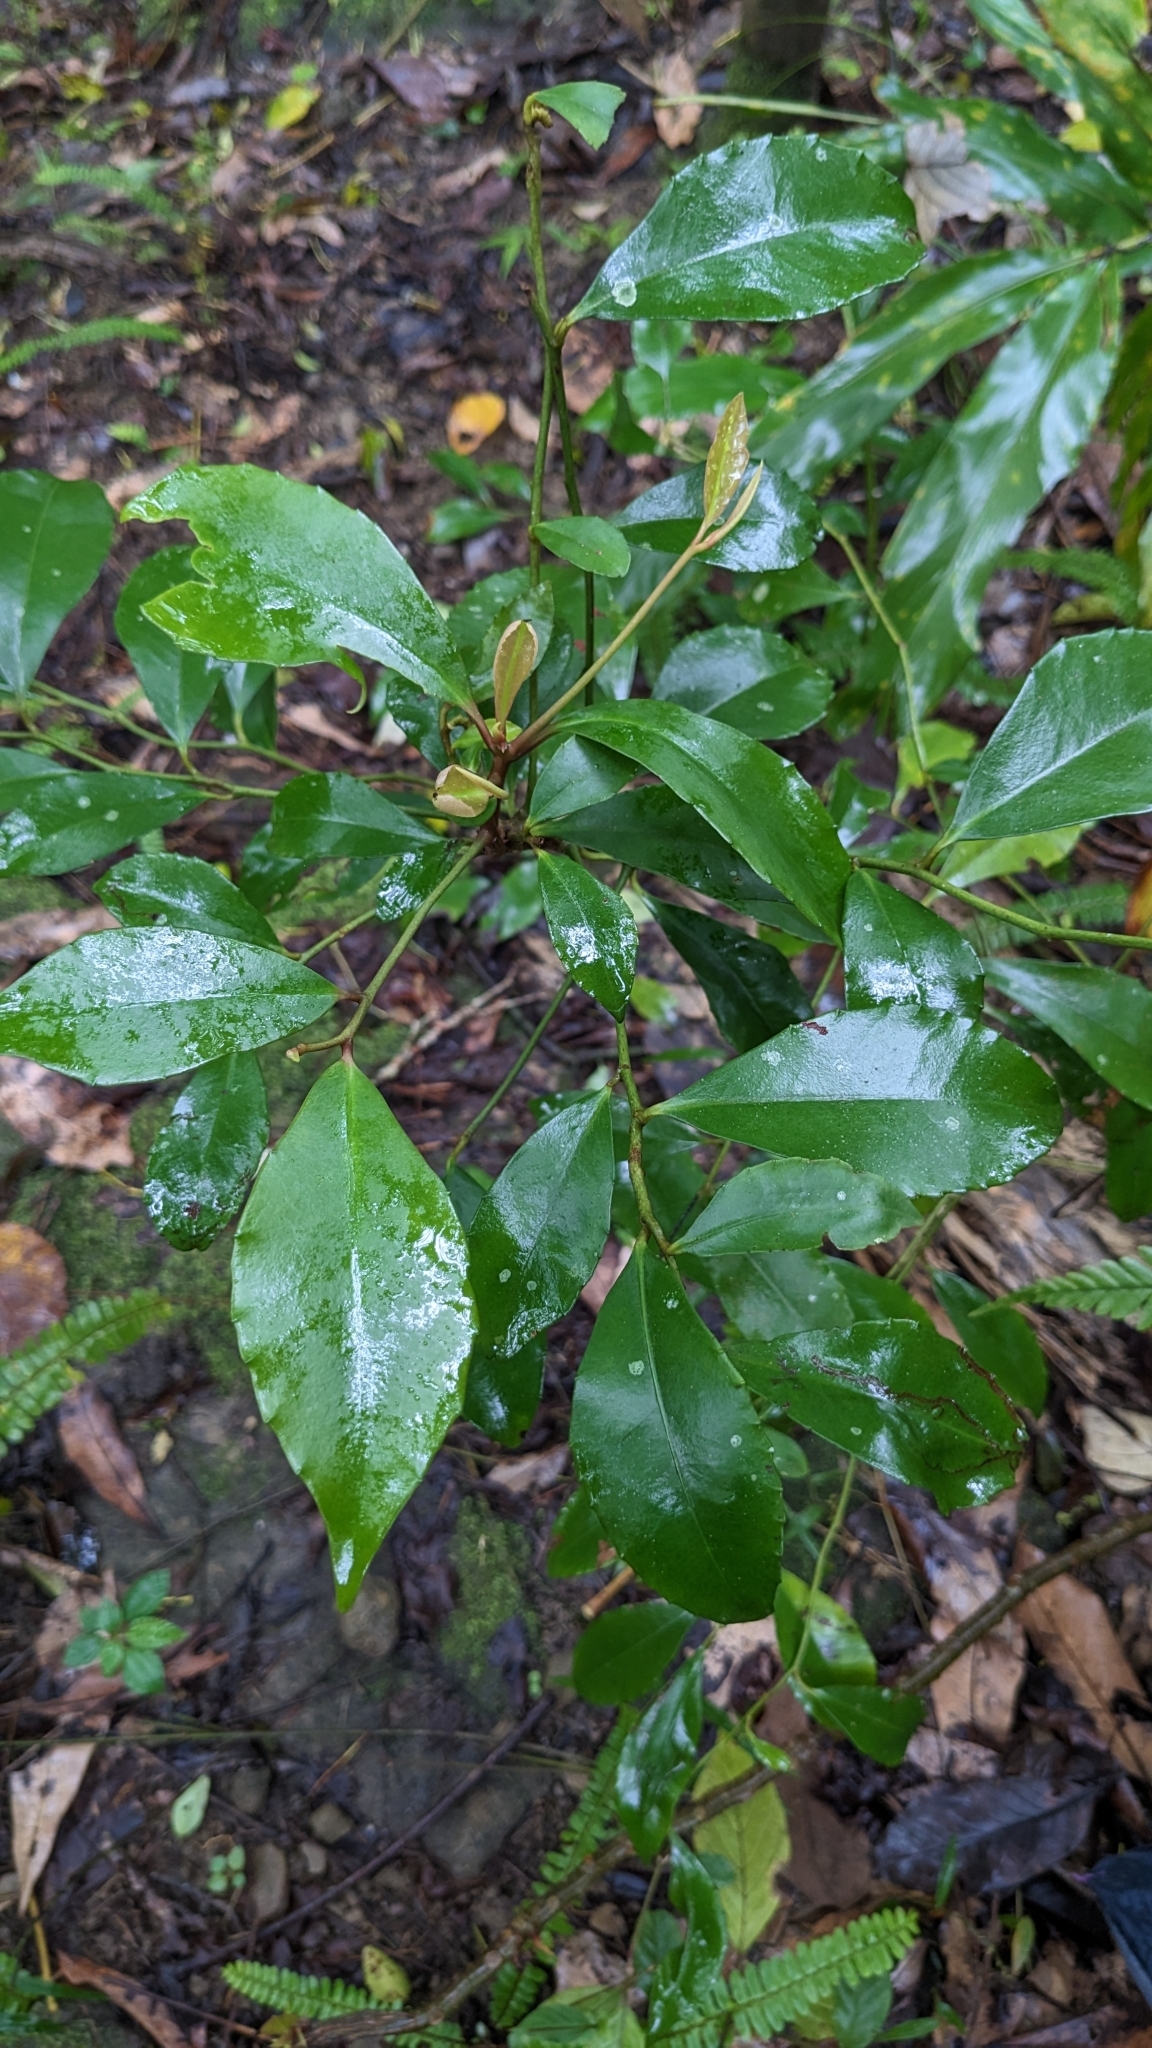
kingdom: Plantae
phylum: Tracheophyta
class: Magnoliopsida
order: Ericales
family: Primulaceae
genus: Ardisia
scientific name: Ardisia cornudentata
